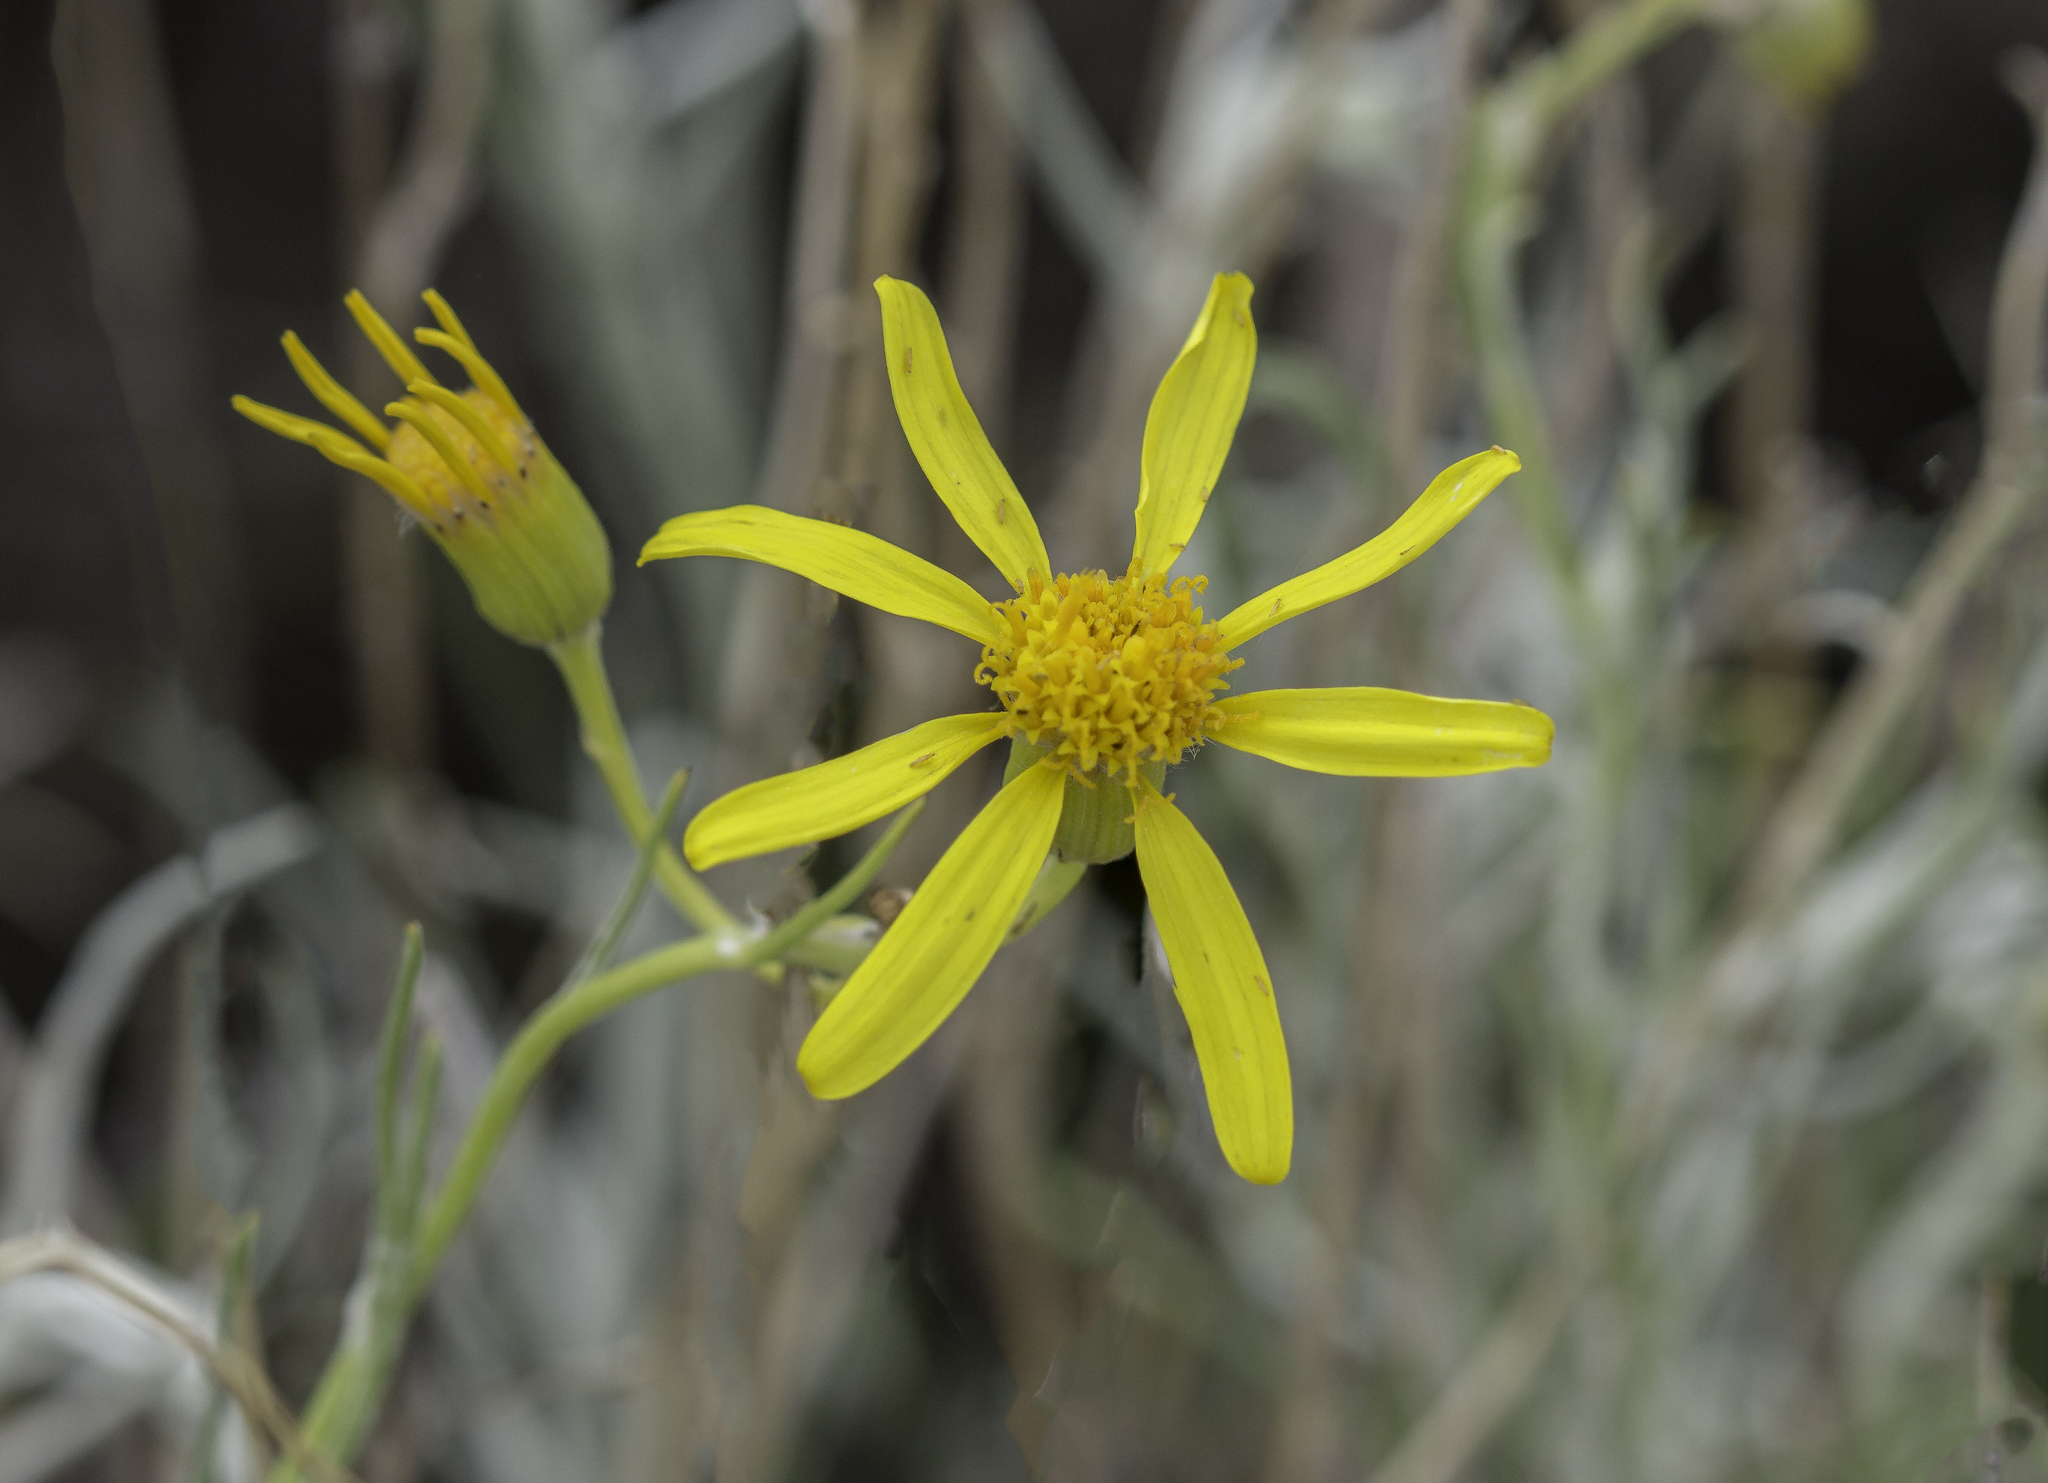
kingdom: Plantae
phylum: Tracheophyta
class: Magnoliopsida
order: Asterales
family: Asteraceae
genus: Senecio
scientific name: Senecio flaccidus
